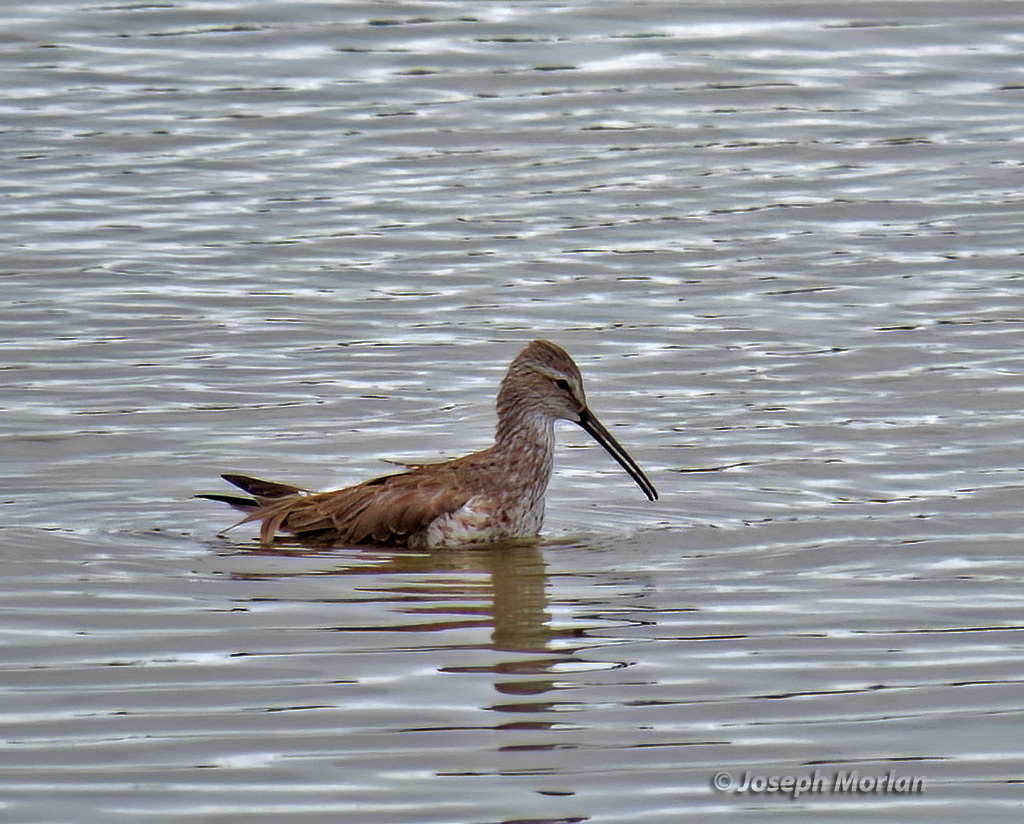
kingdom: Animalia
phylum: Chordata
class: Aves
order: Charadriiformes
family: Scolopacidae
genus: Calidris
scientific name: Calidris himantopus
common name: Stilt sandpiper
